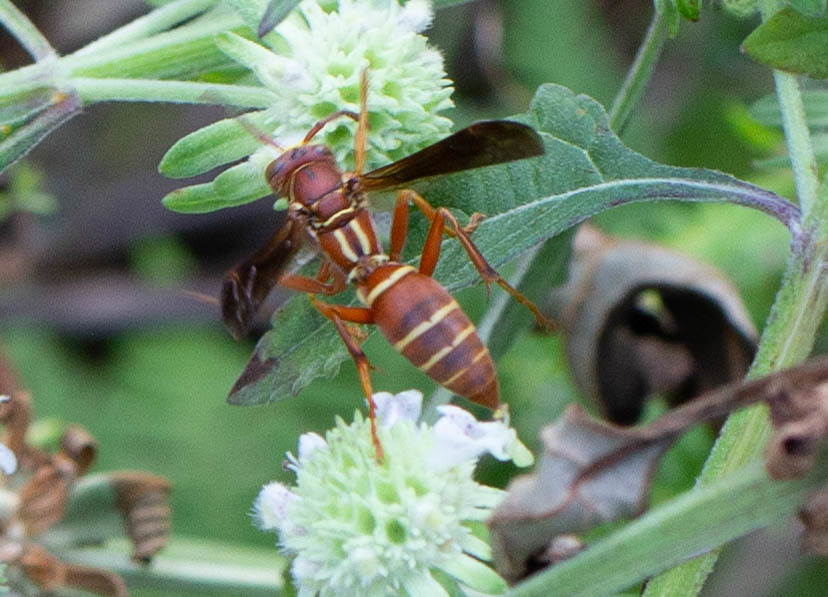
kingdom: Animalia
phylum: Arthropoda
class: Insecta
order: Hymenoptera
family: Eumenidae
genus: Polistes
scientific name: Polistes bellicosus
